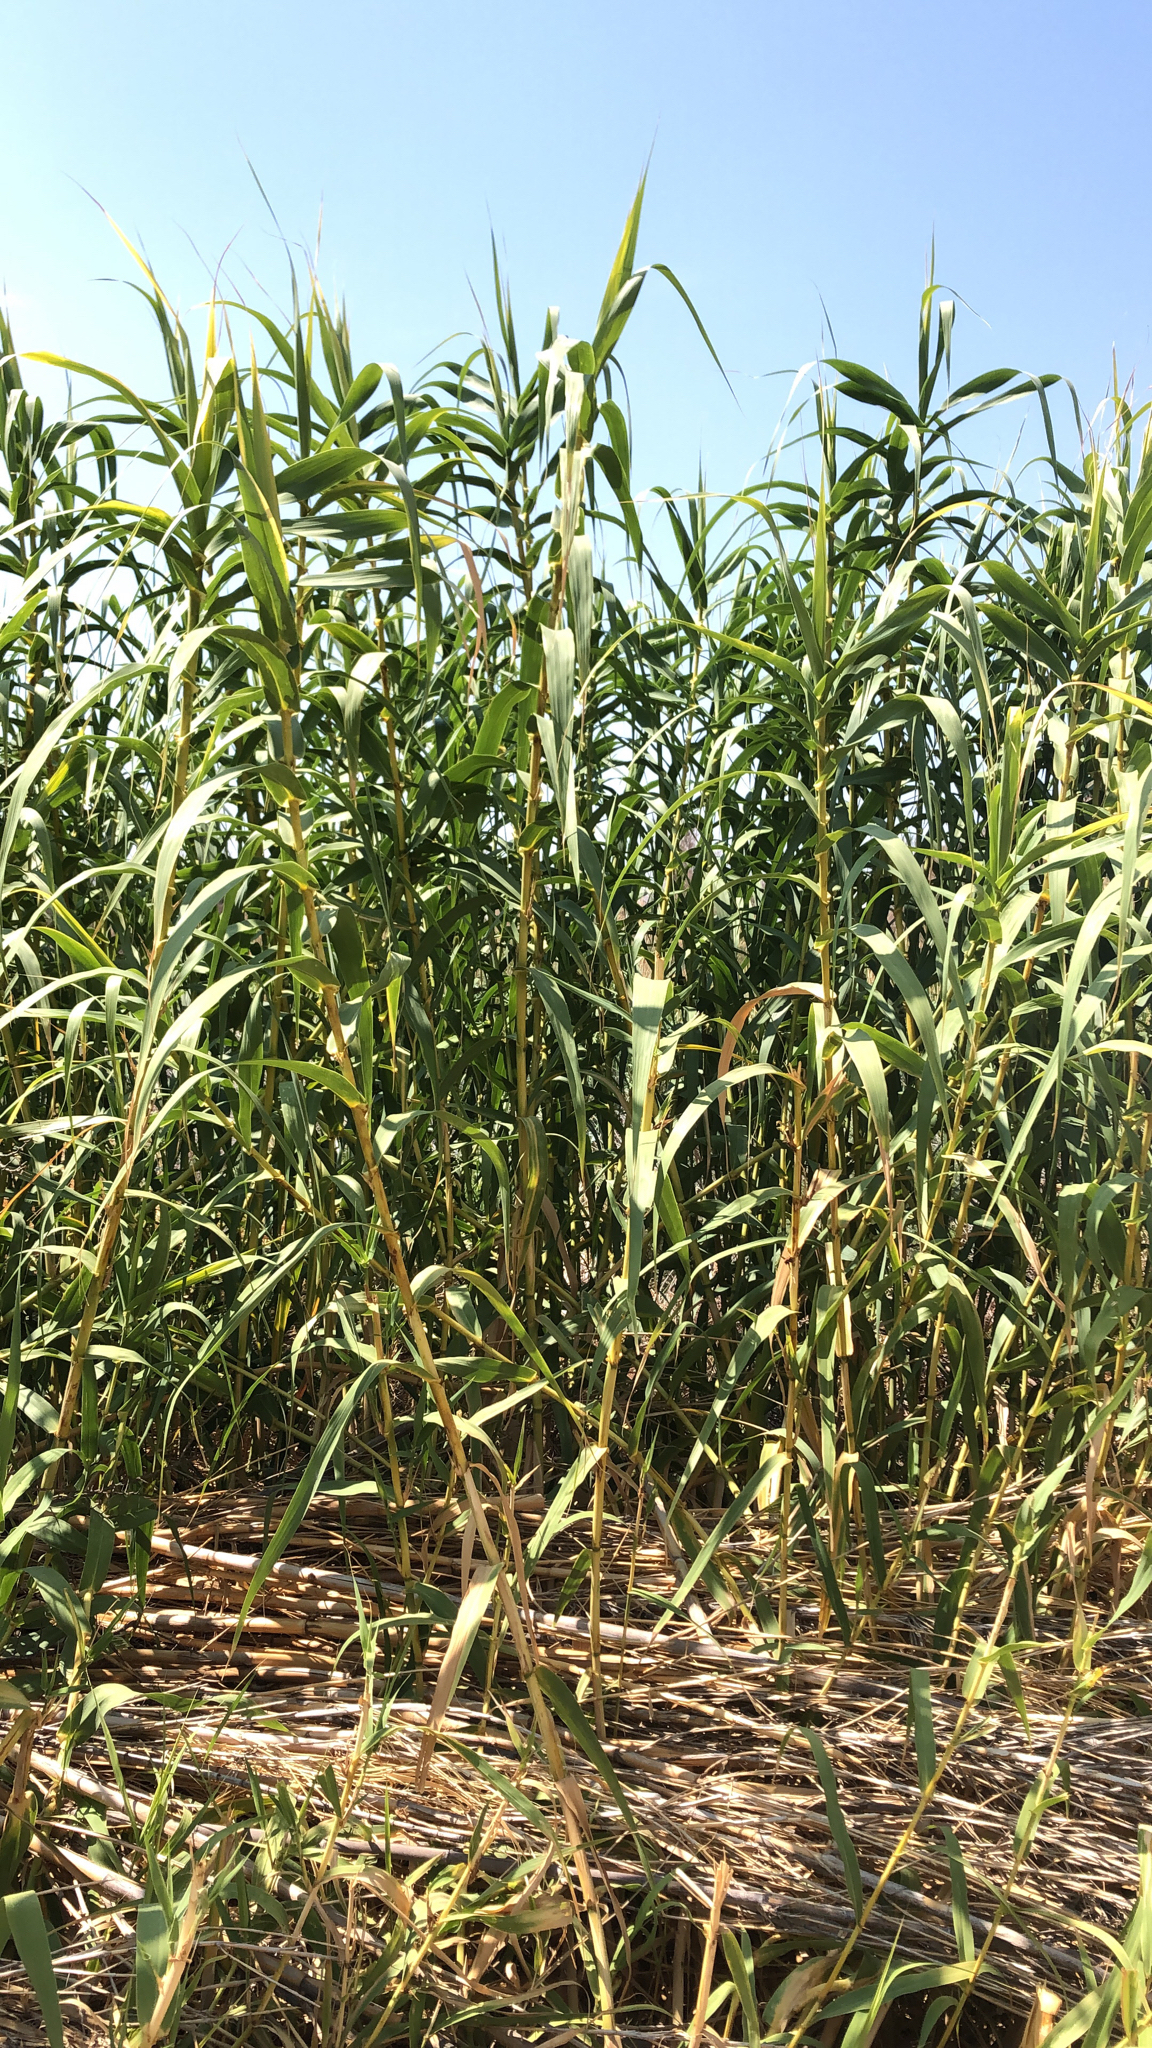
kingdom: Plantae
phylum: Tracheophyta
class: Liliopsida
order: Poales
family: Poaceae
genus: Arundo
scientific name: Arundo donax
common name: Giant reed
